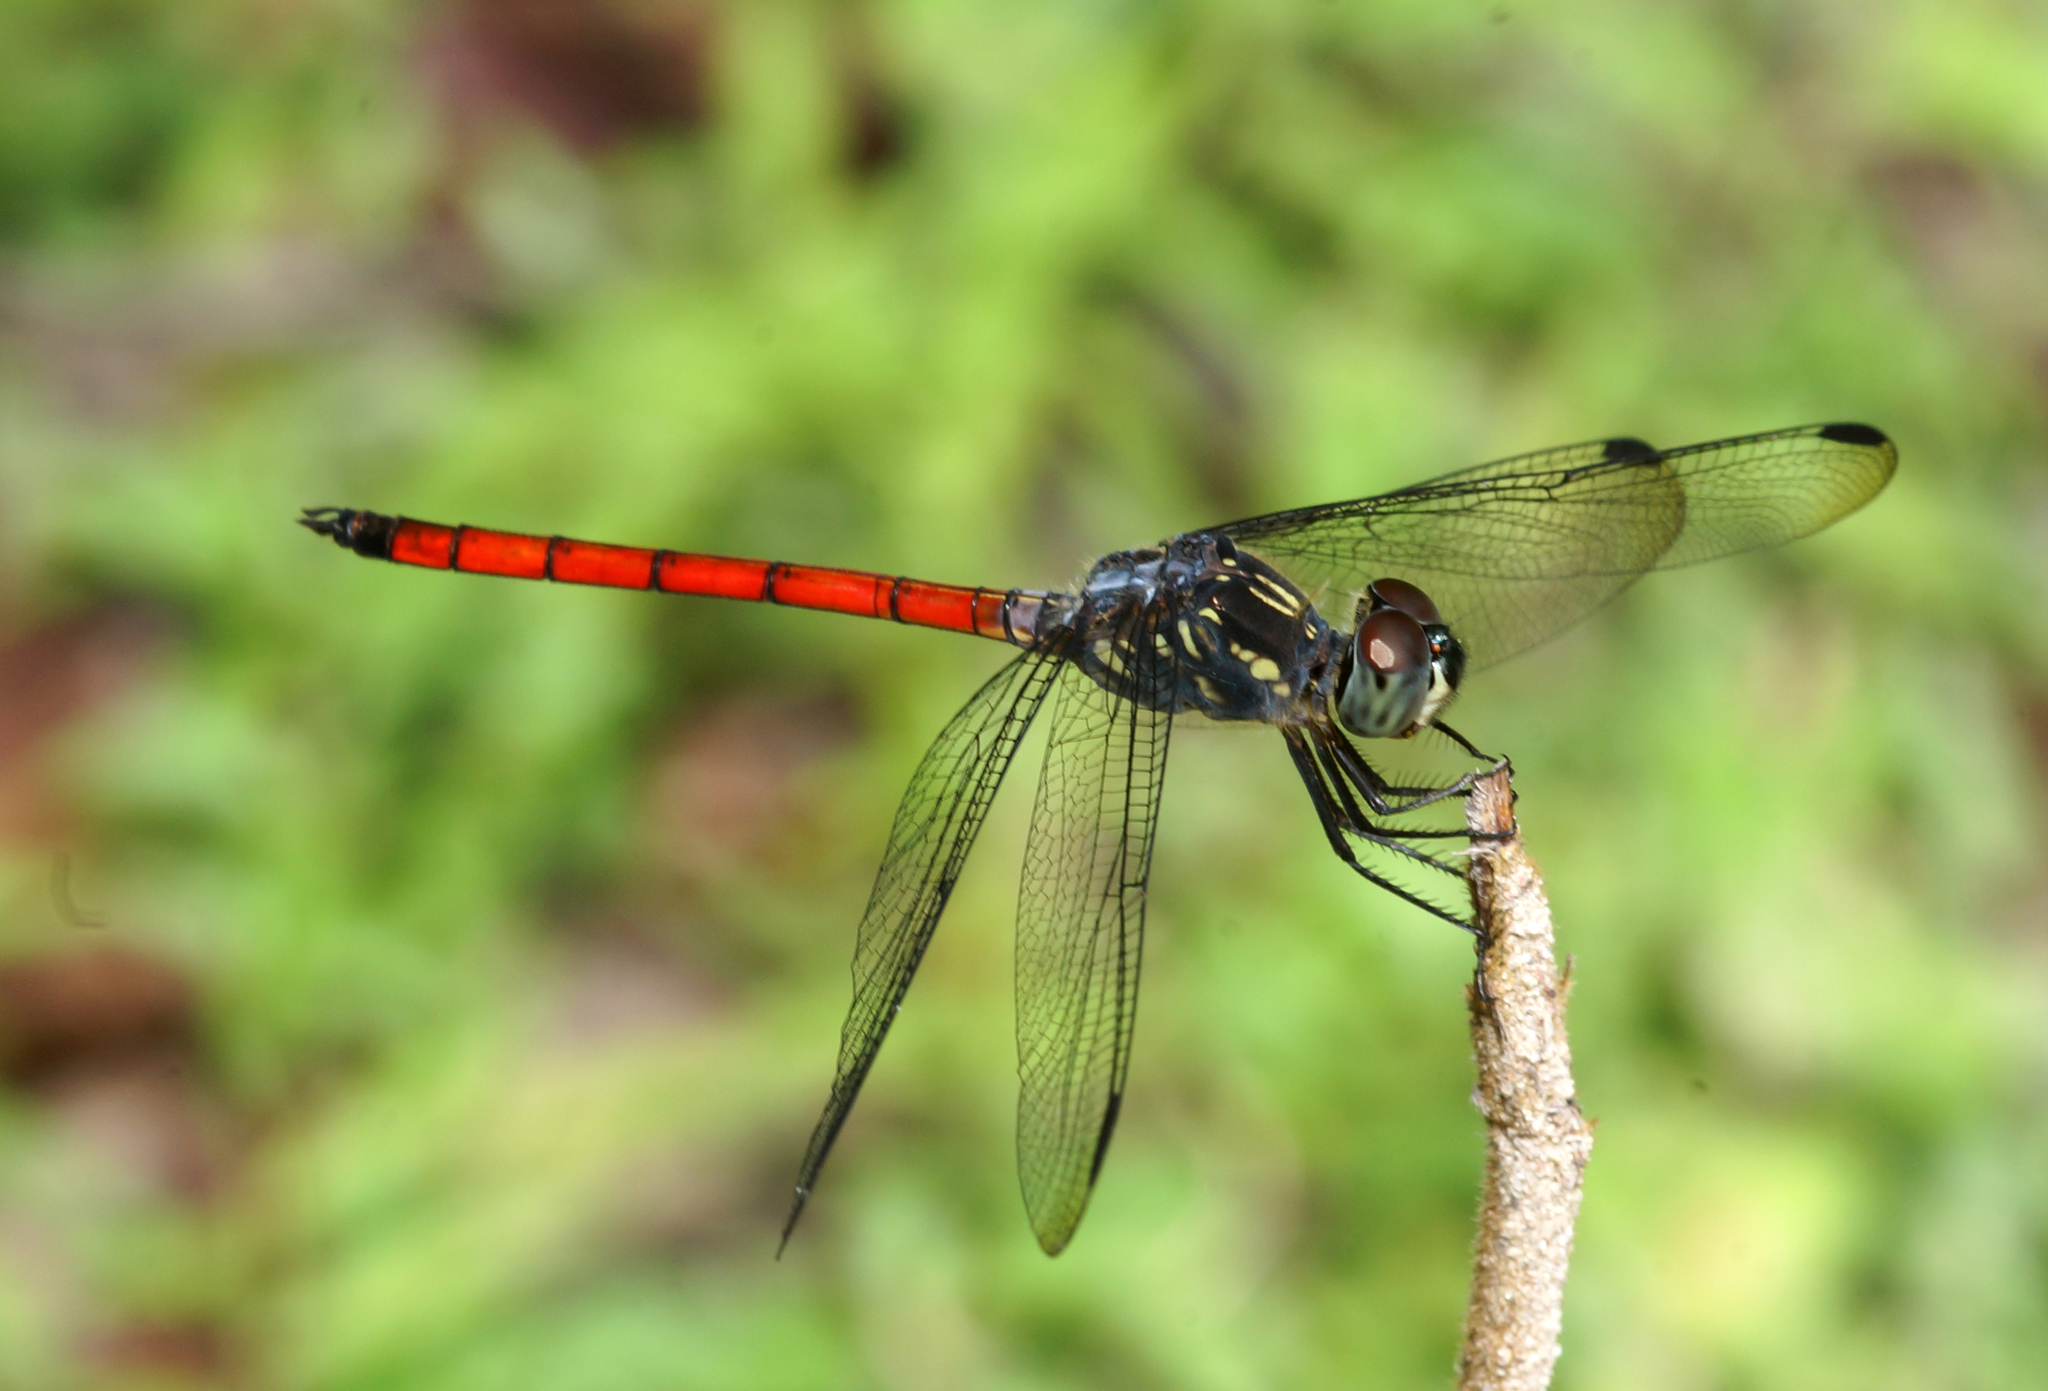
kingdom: Animalia
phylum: Arthropoda
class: Insecta
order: Odonata
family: Libellulidae
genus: Agrionoptera
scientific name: Agrionoptera insignis
